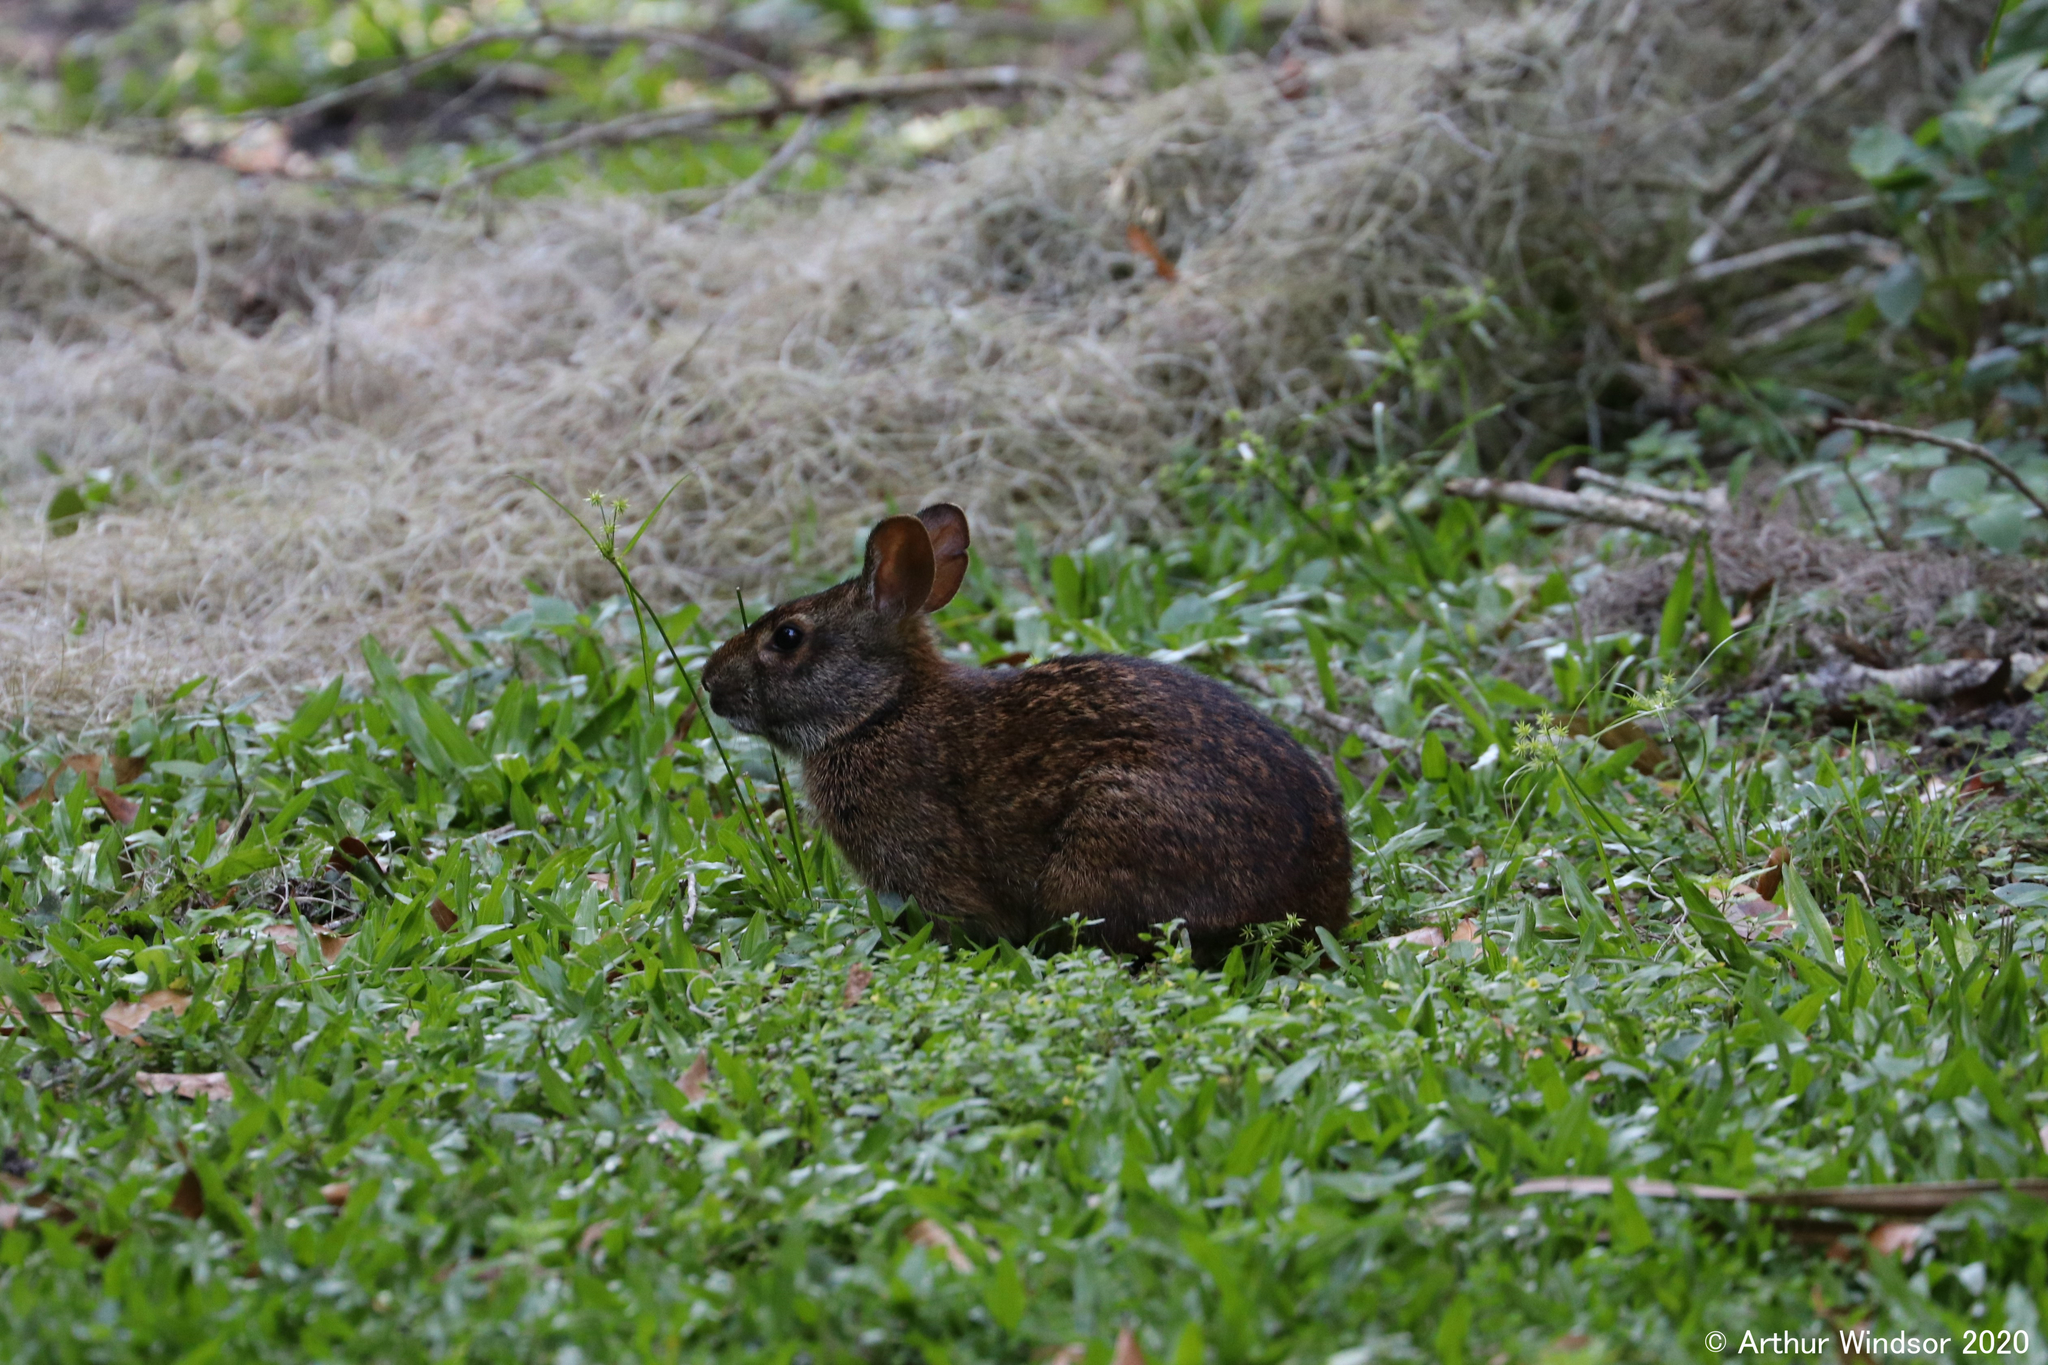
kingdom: Animalia
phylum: Chordata
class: Mammalia
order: Lagomorpha
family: Leporidae
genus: Sylvilagus
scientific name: Sylvilagus palustris
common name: Marsh rabbit
